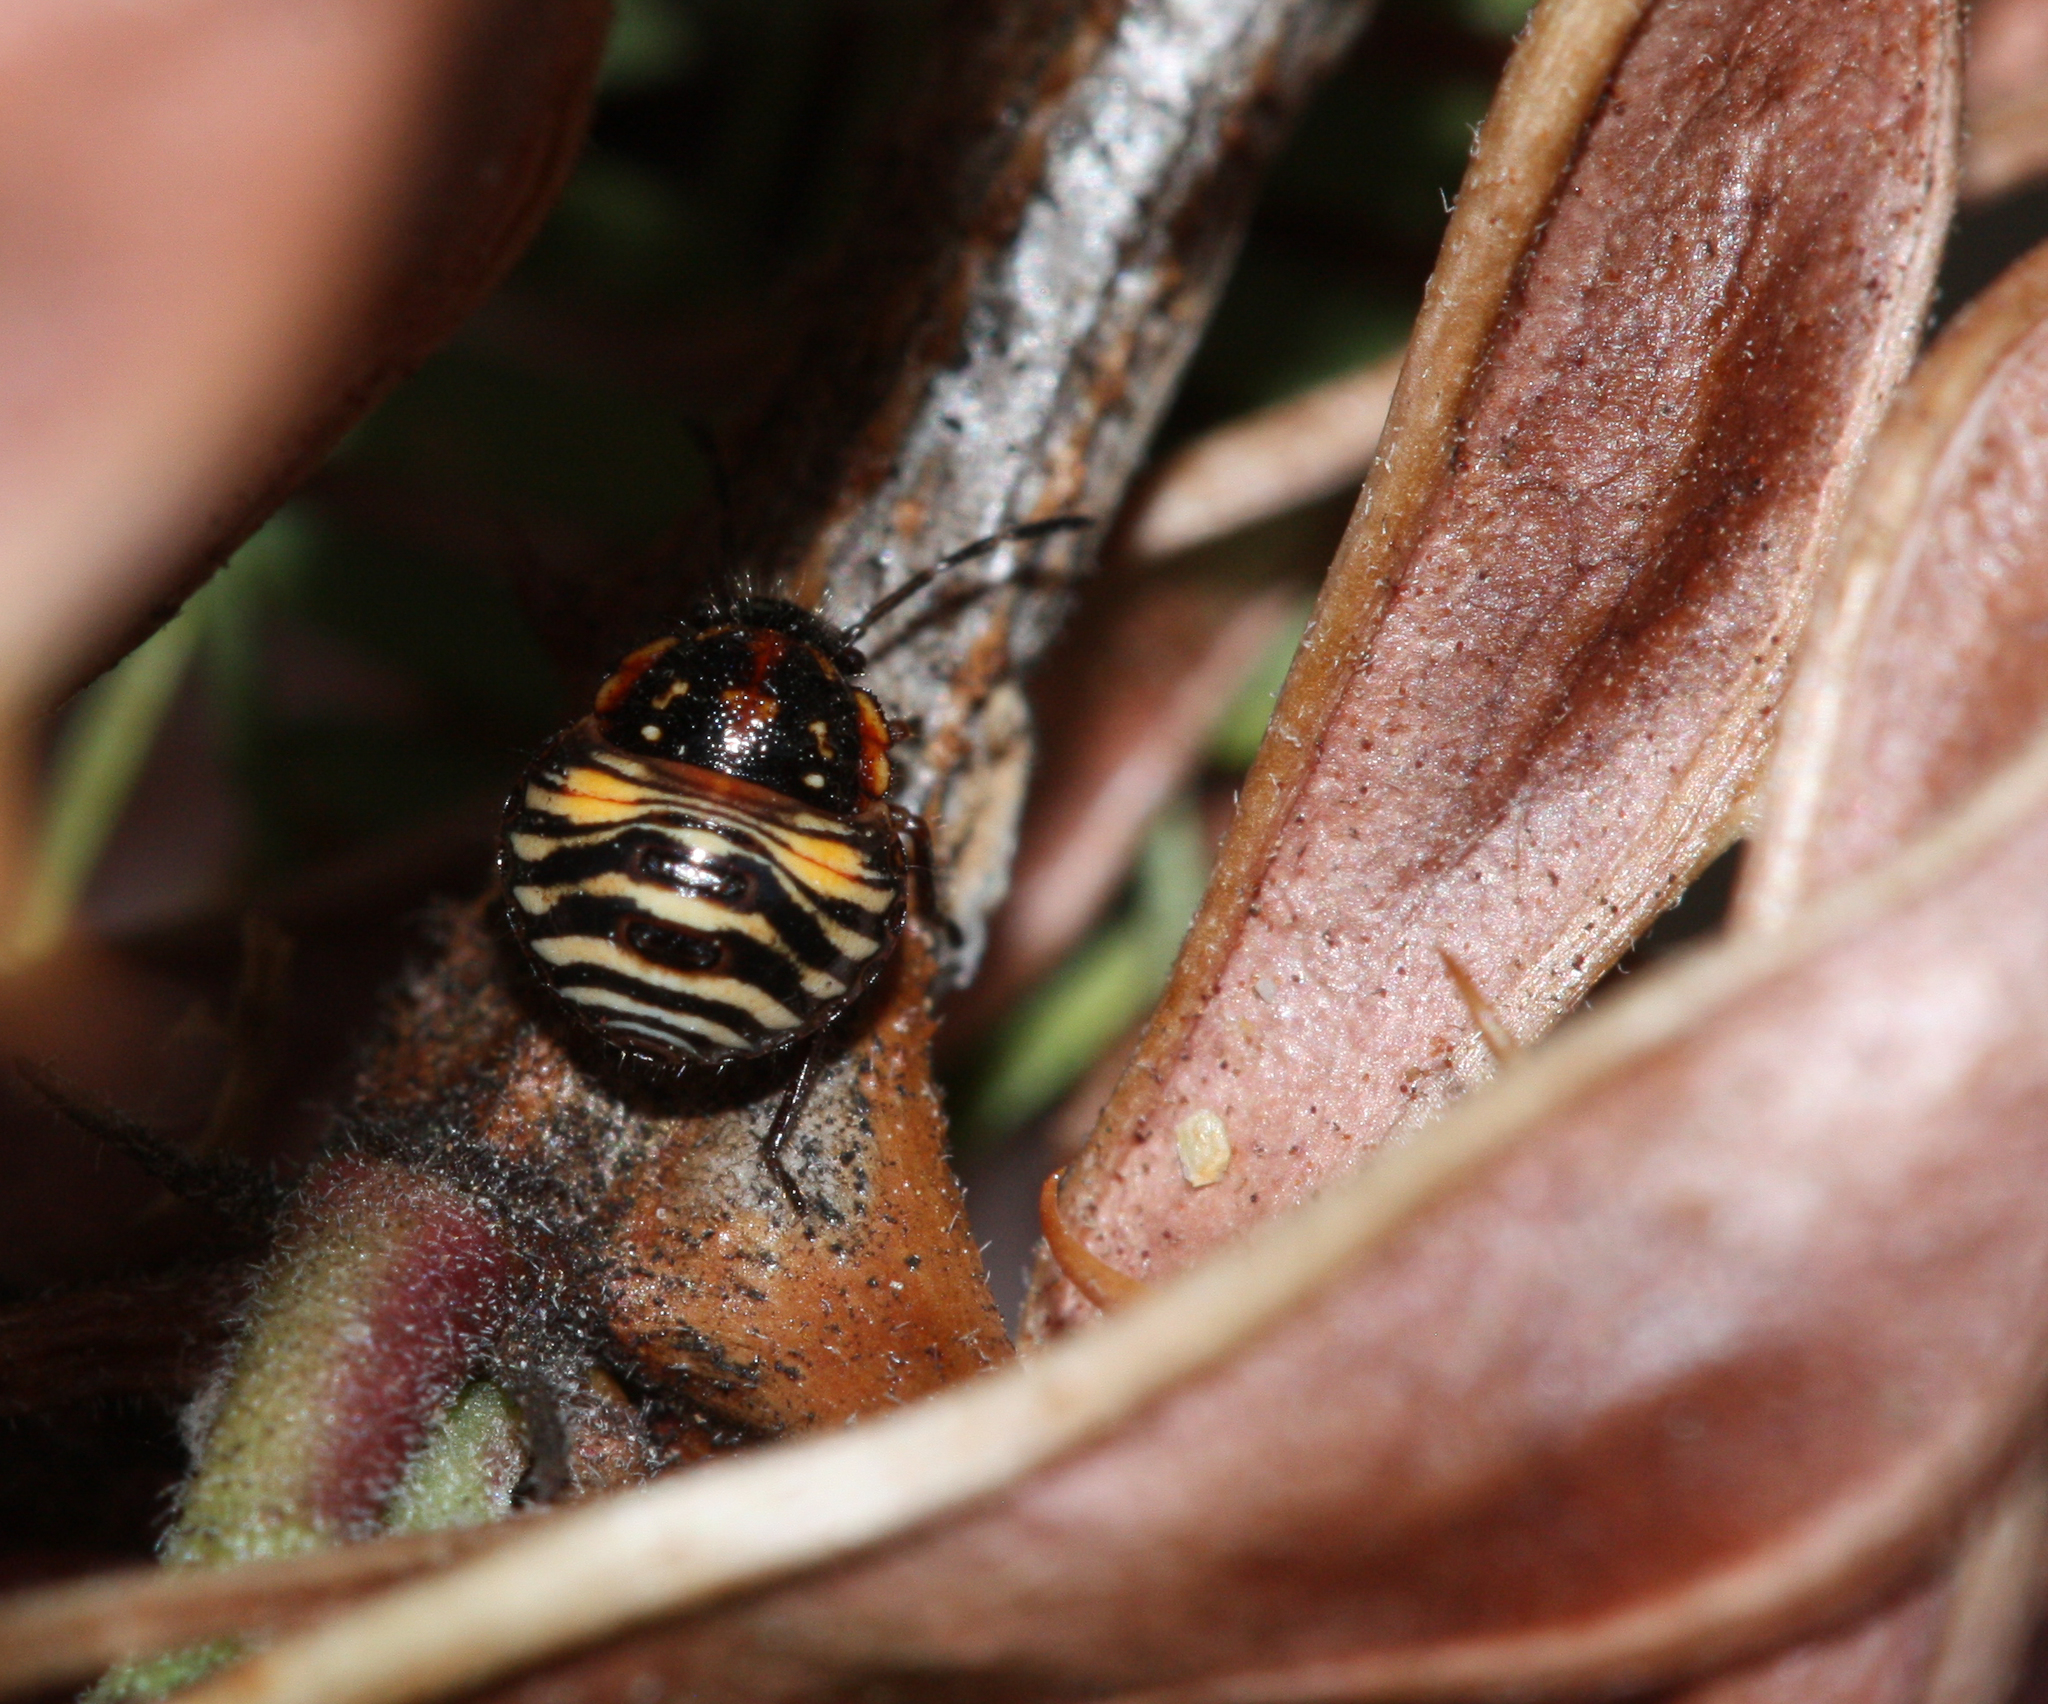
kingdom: Animalia
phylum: Arthropoda
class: Insecta
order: Hemiptera
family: Pentatomidae
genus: Thyanta
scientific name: Thyanta accerra
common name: Stink bug
